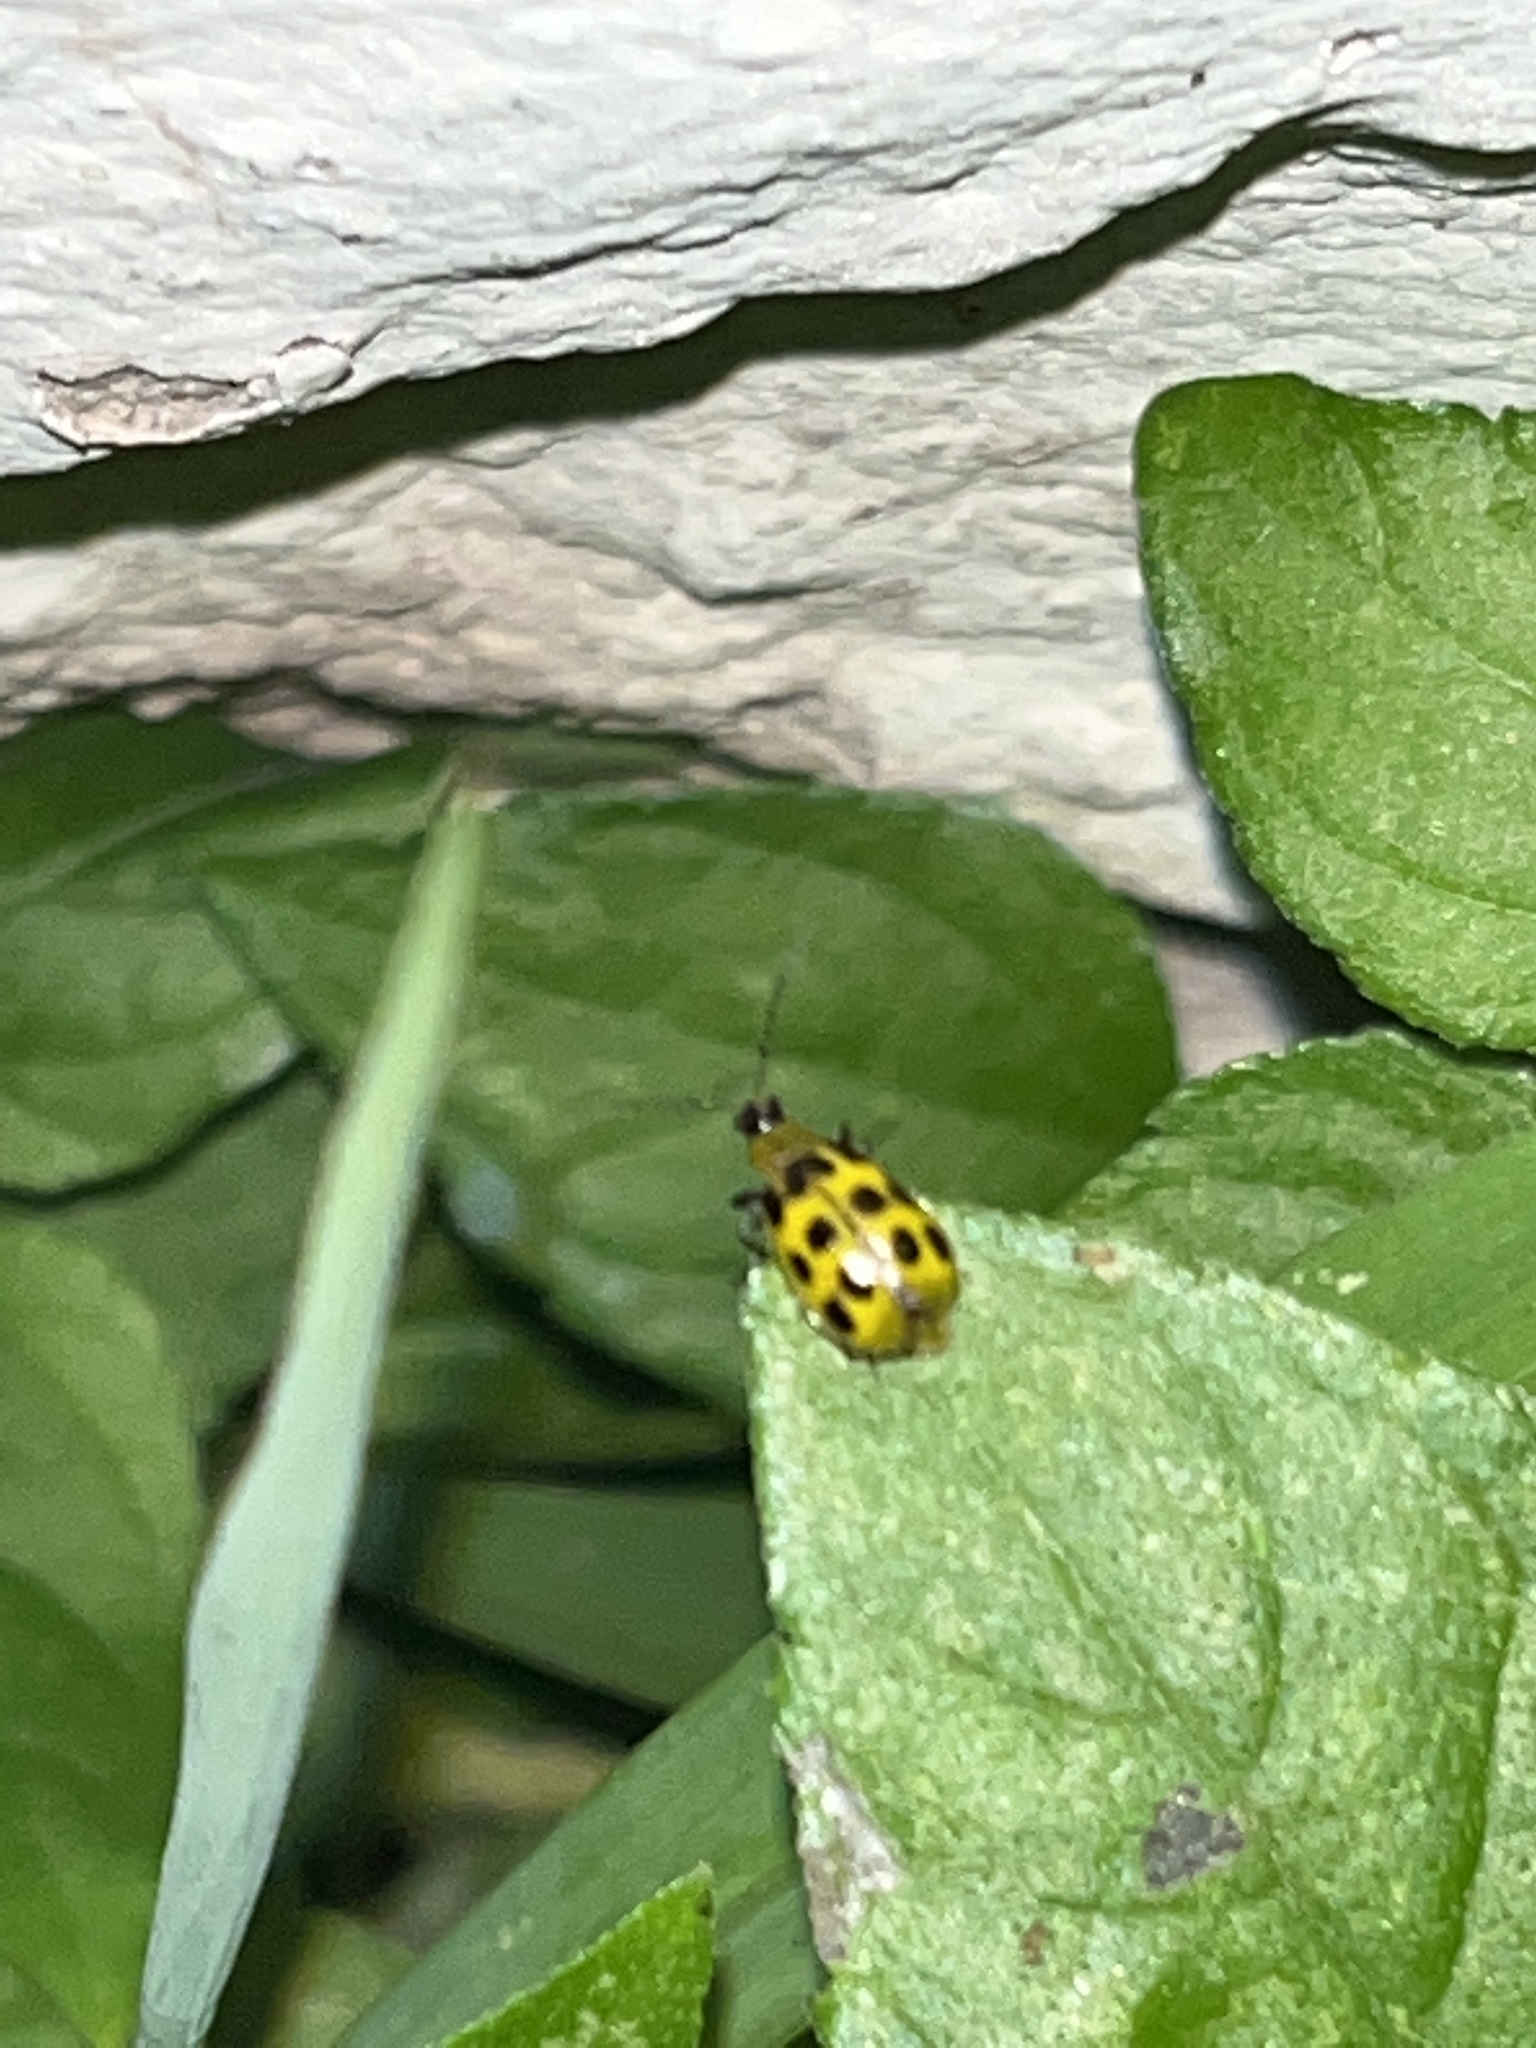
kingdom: Animalia
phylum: Arthropoda
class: Insecta
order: Coleoptera
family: Chrysomelidae
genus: Diabrotica
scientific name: Diabrotica undecimpunctata
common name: Spotted cucumber beetle
